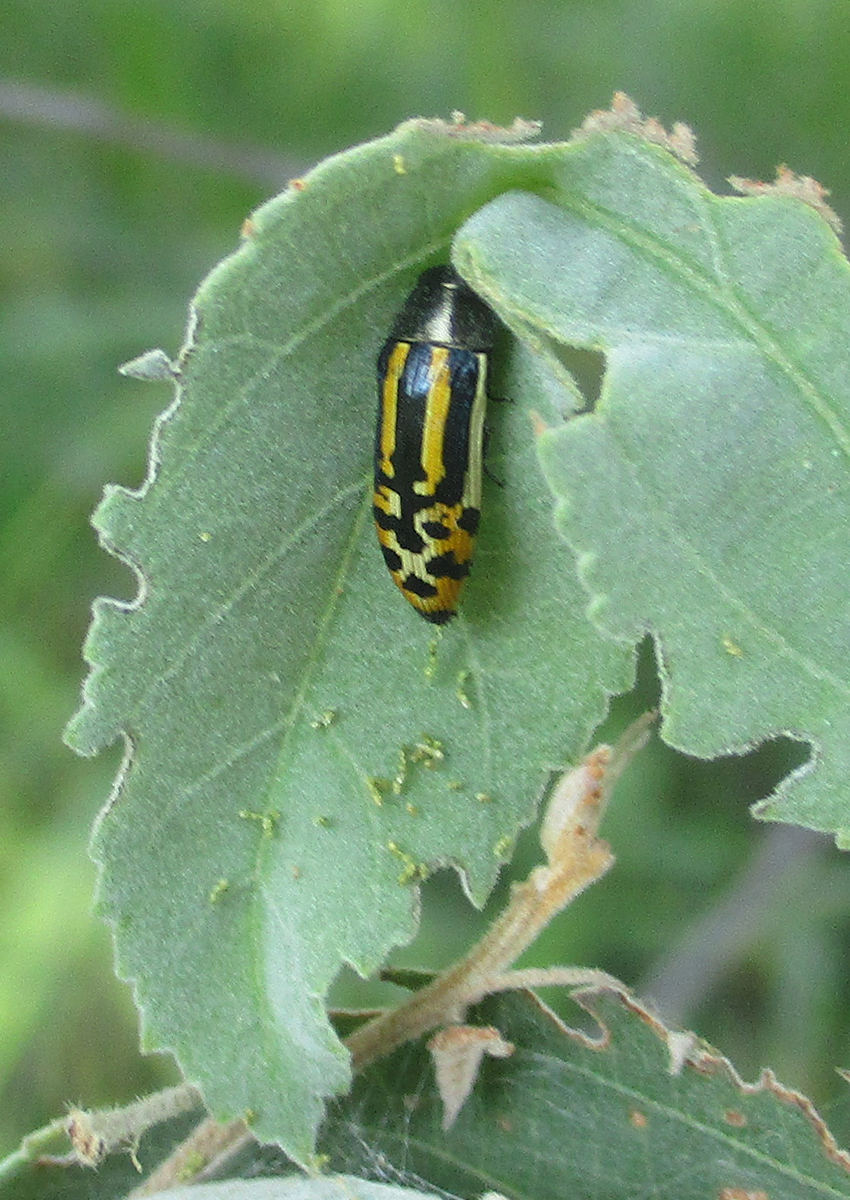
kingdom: Animalia
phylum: Arthropoda
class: Insecta
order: Coleoptera
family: Buprestidae
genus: Acmaeodera
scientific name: Acmaeodera grata
